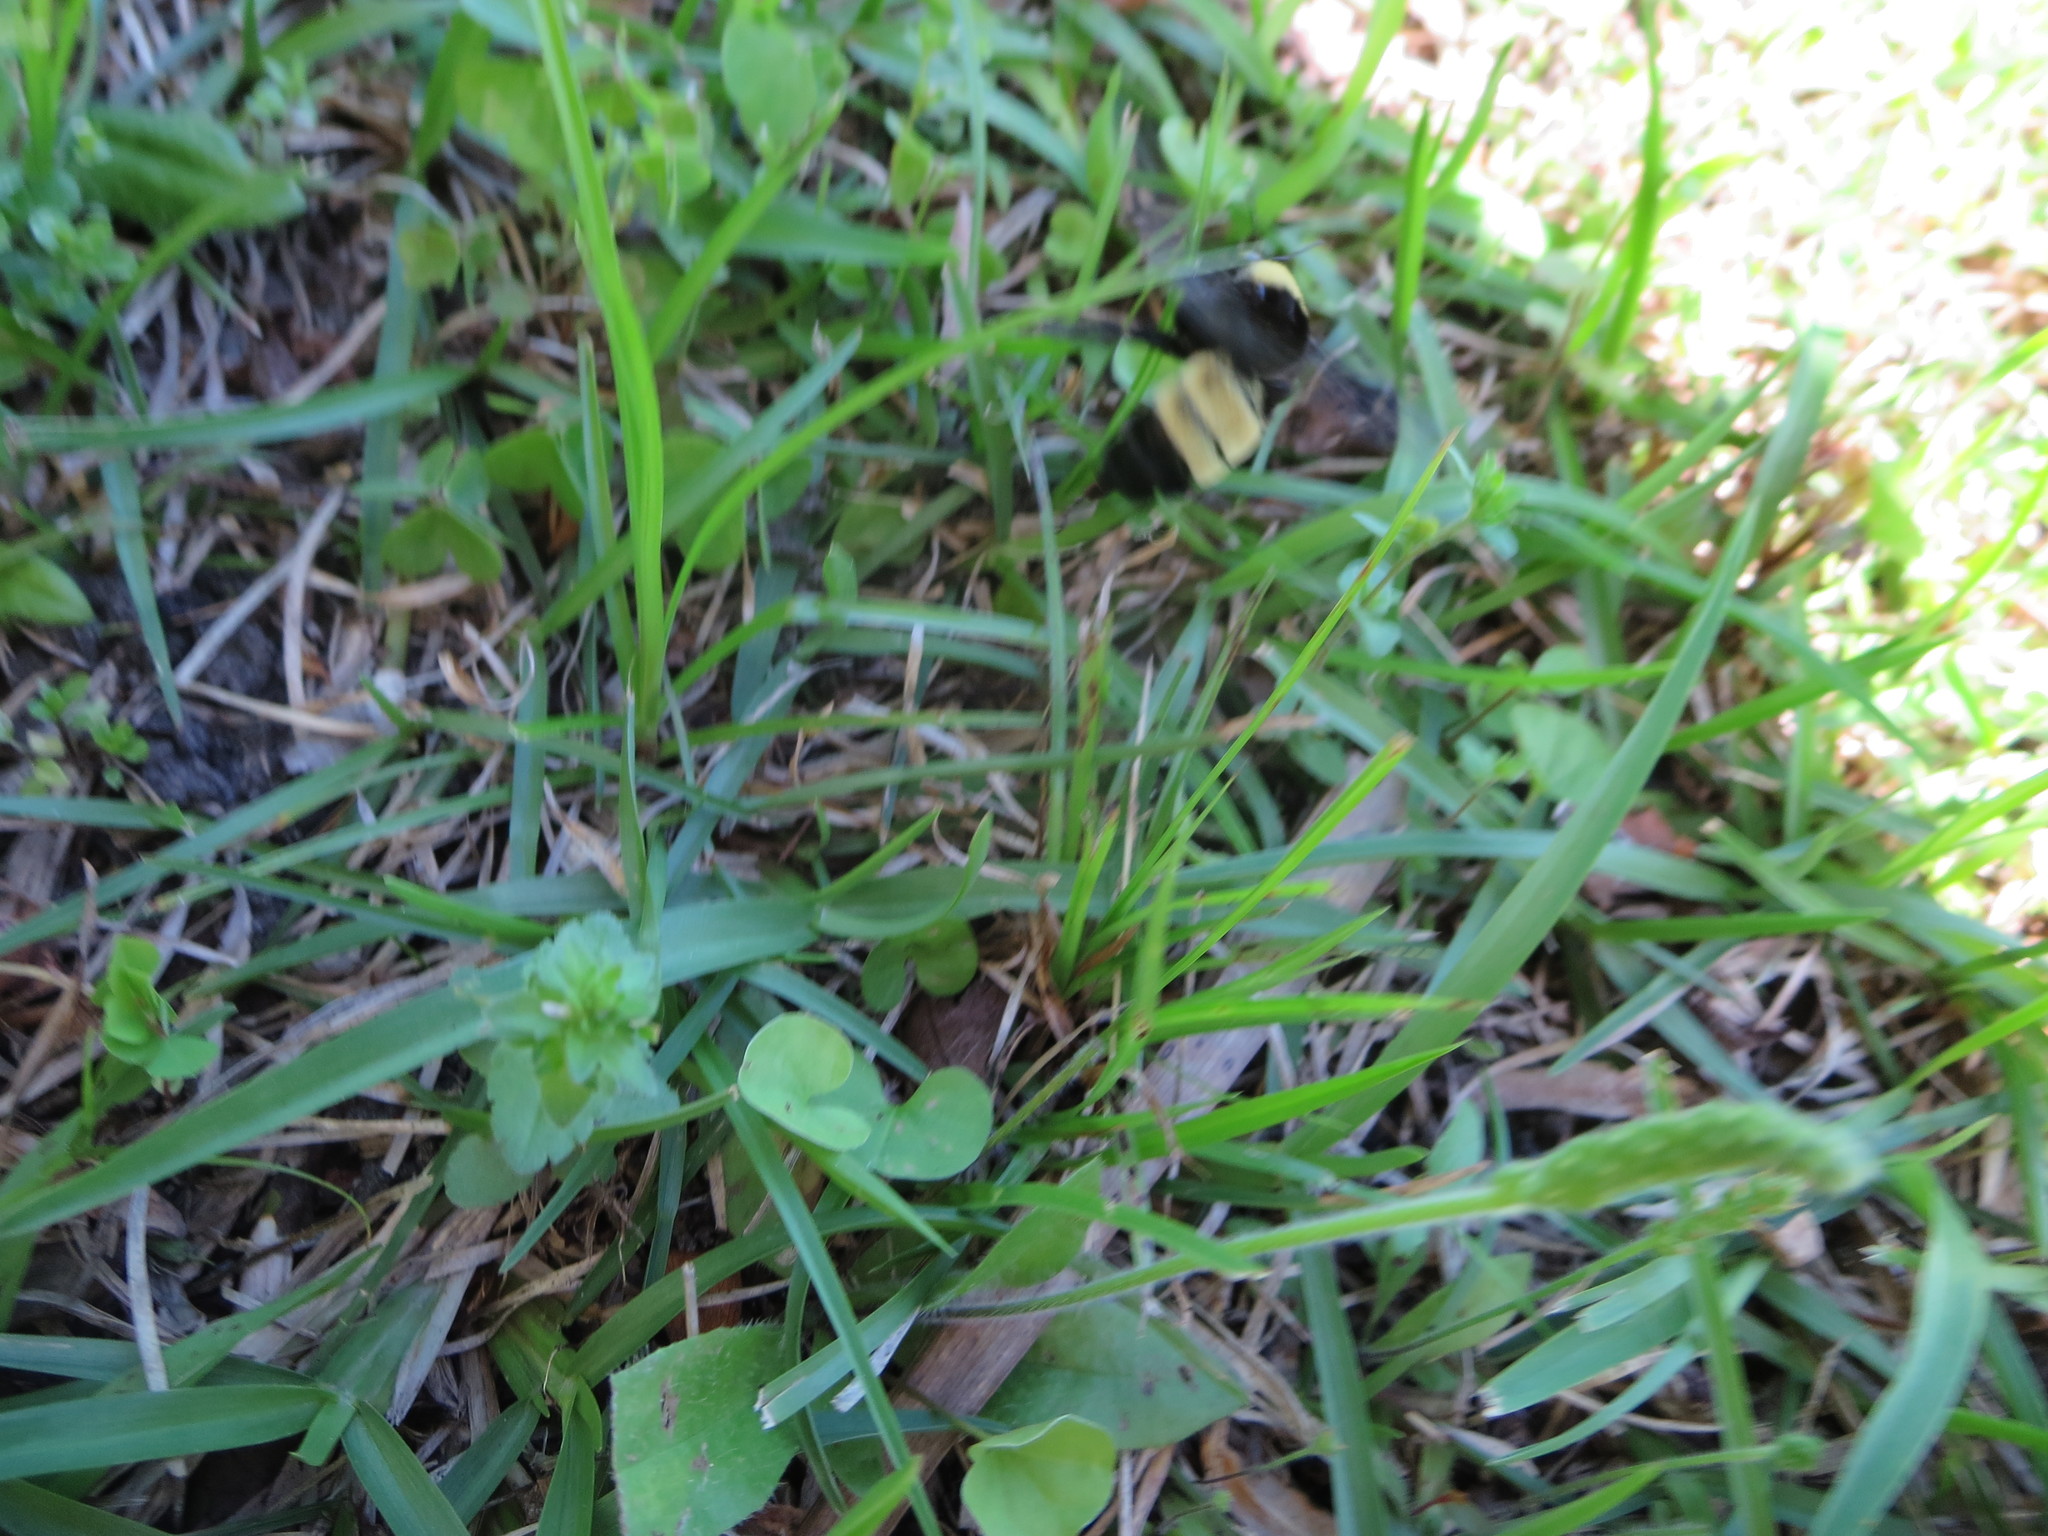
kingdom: Animalia
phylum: Arthropoda
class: Insecta
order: Hymenoptera
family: Apidae
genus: Bombus
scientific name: Bombus pensylvanicus
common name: Bumble bee
